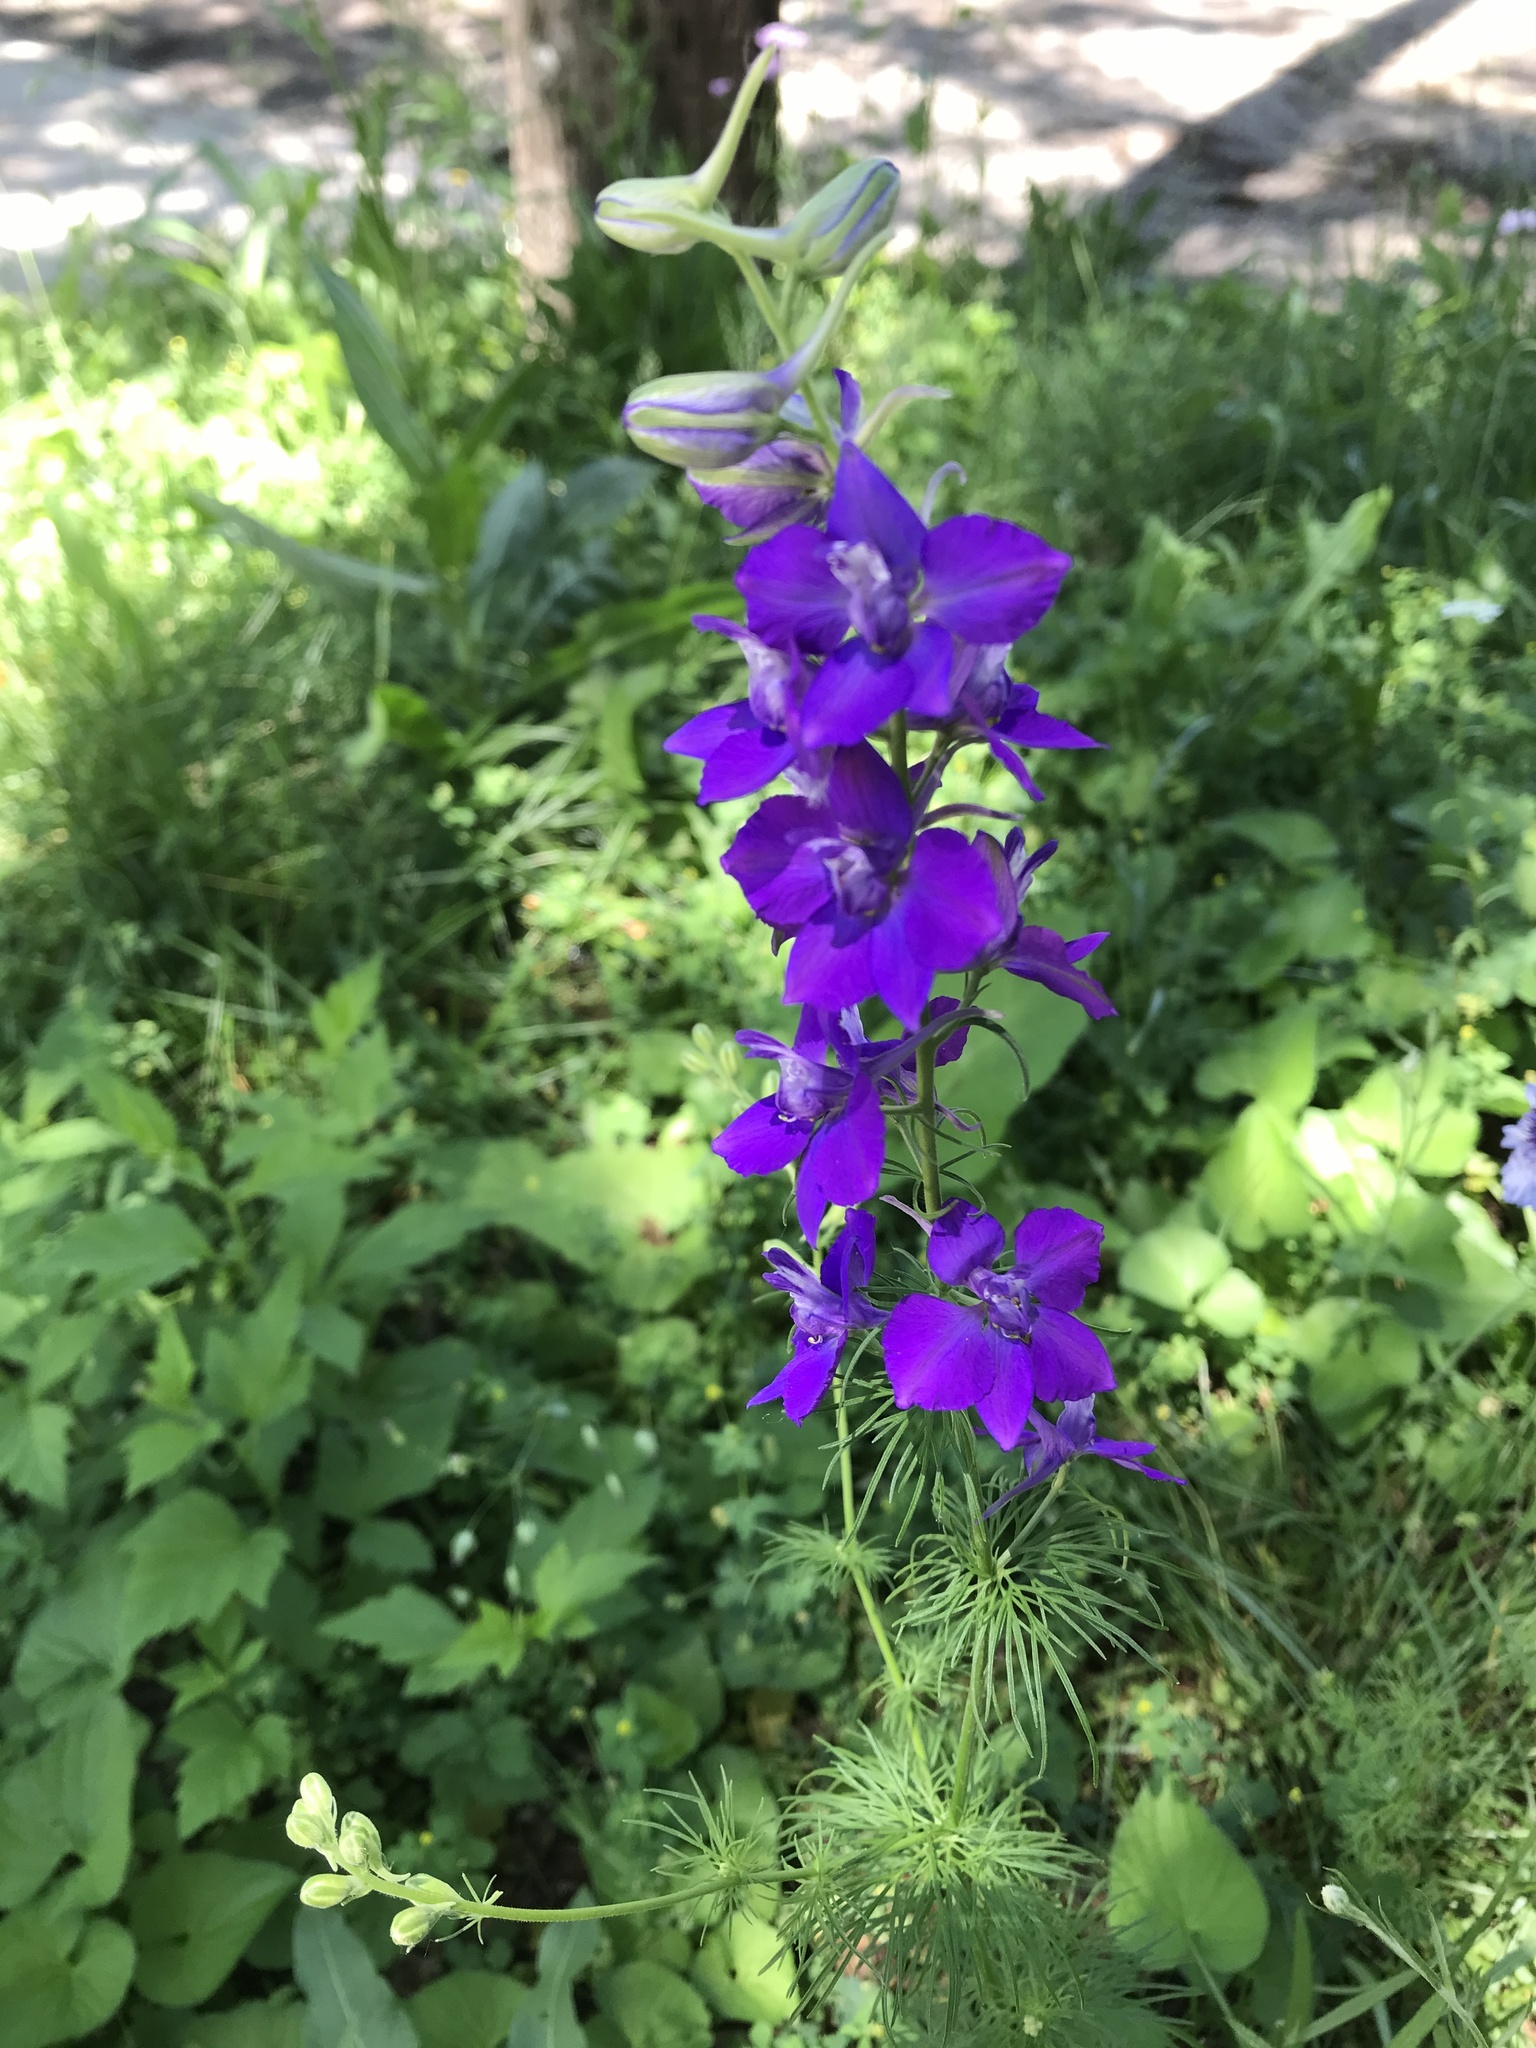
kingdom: Plantae
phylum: Tracheophyta
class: Magnoliopsida
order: Ranunculales
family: Ranunculaceae
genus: Delphinium
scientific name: Delphinium ajacis
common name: Doubtful knight's-spur
